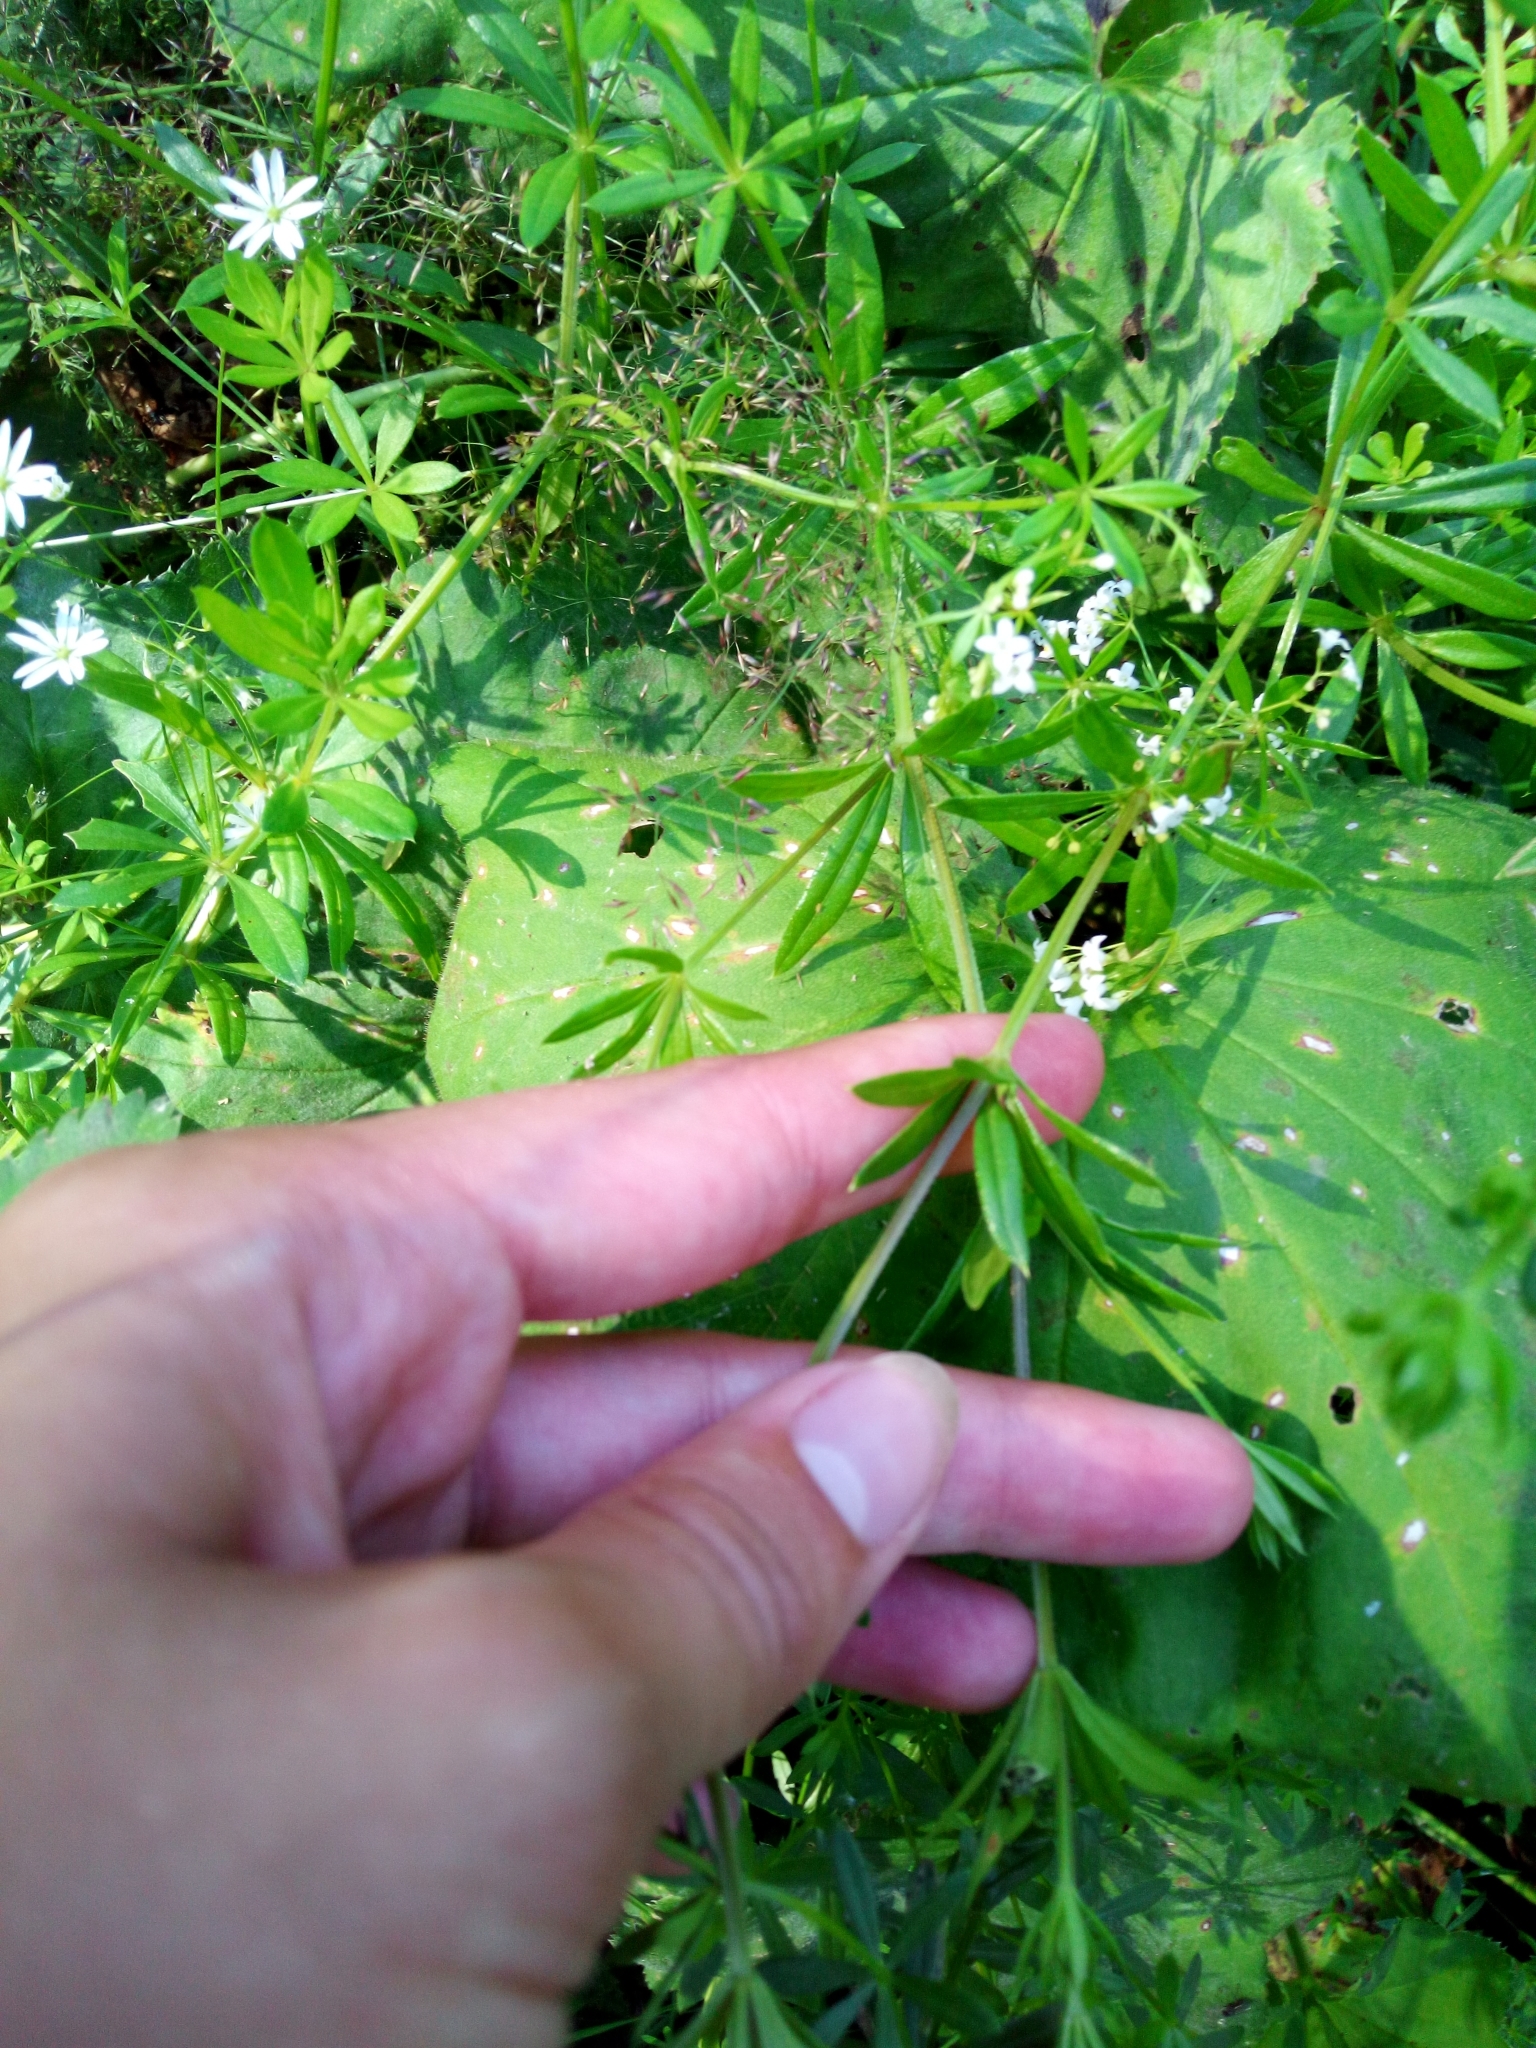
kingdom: Plantae
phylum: Tracheophyta
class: Magnoliopsida
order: Gentianales
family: Rubiaceae
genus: Galium
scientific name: Galium rivale
